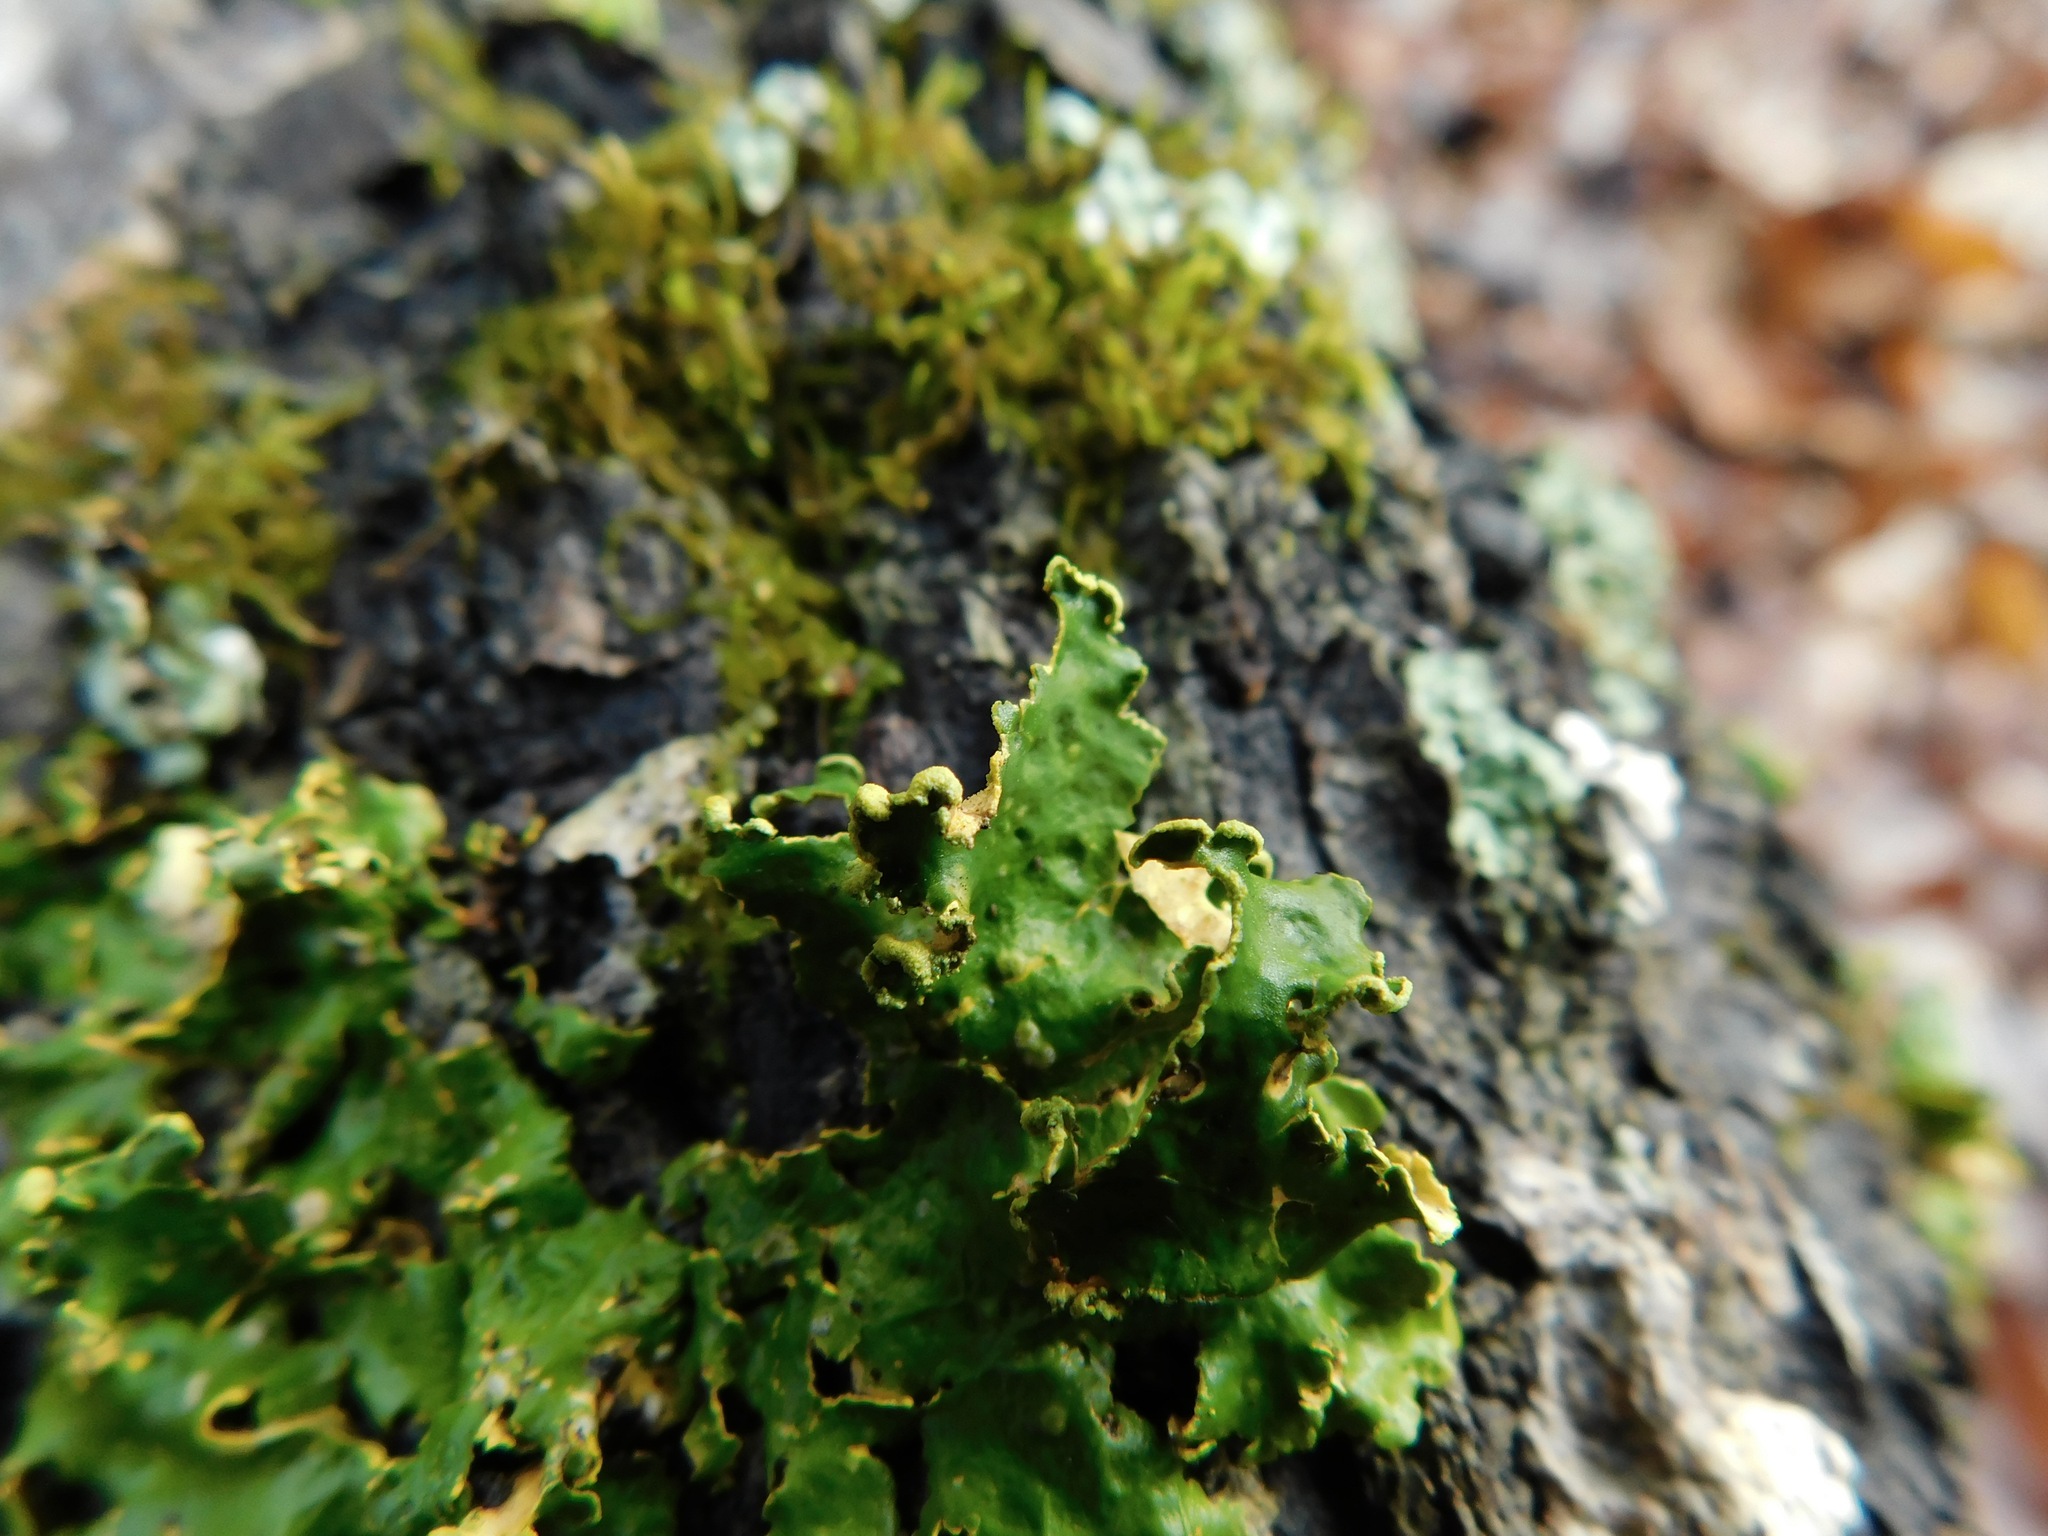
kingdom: Fungi
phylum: Ascomycota
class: Lecanoromycetes
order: Peltigerales
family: Lobariaceae
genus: Pseudocyphellaria
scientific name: Pseudocyphellaria aurata
